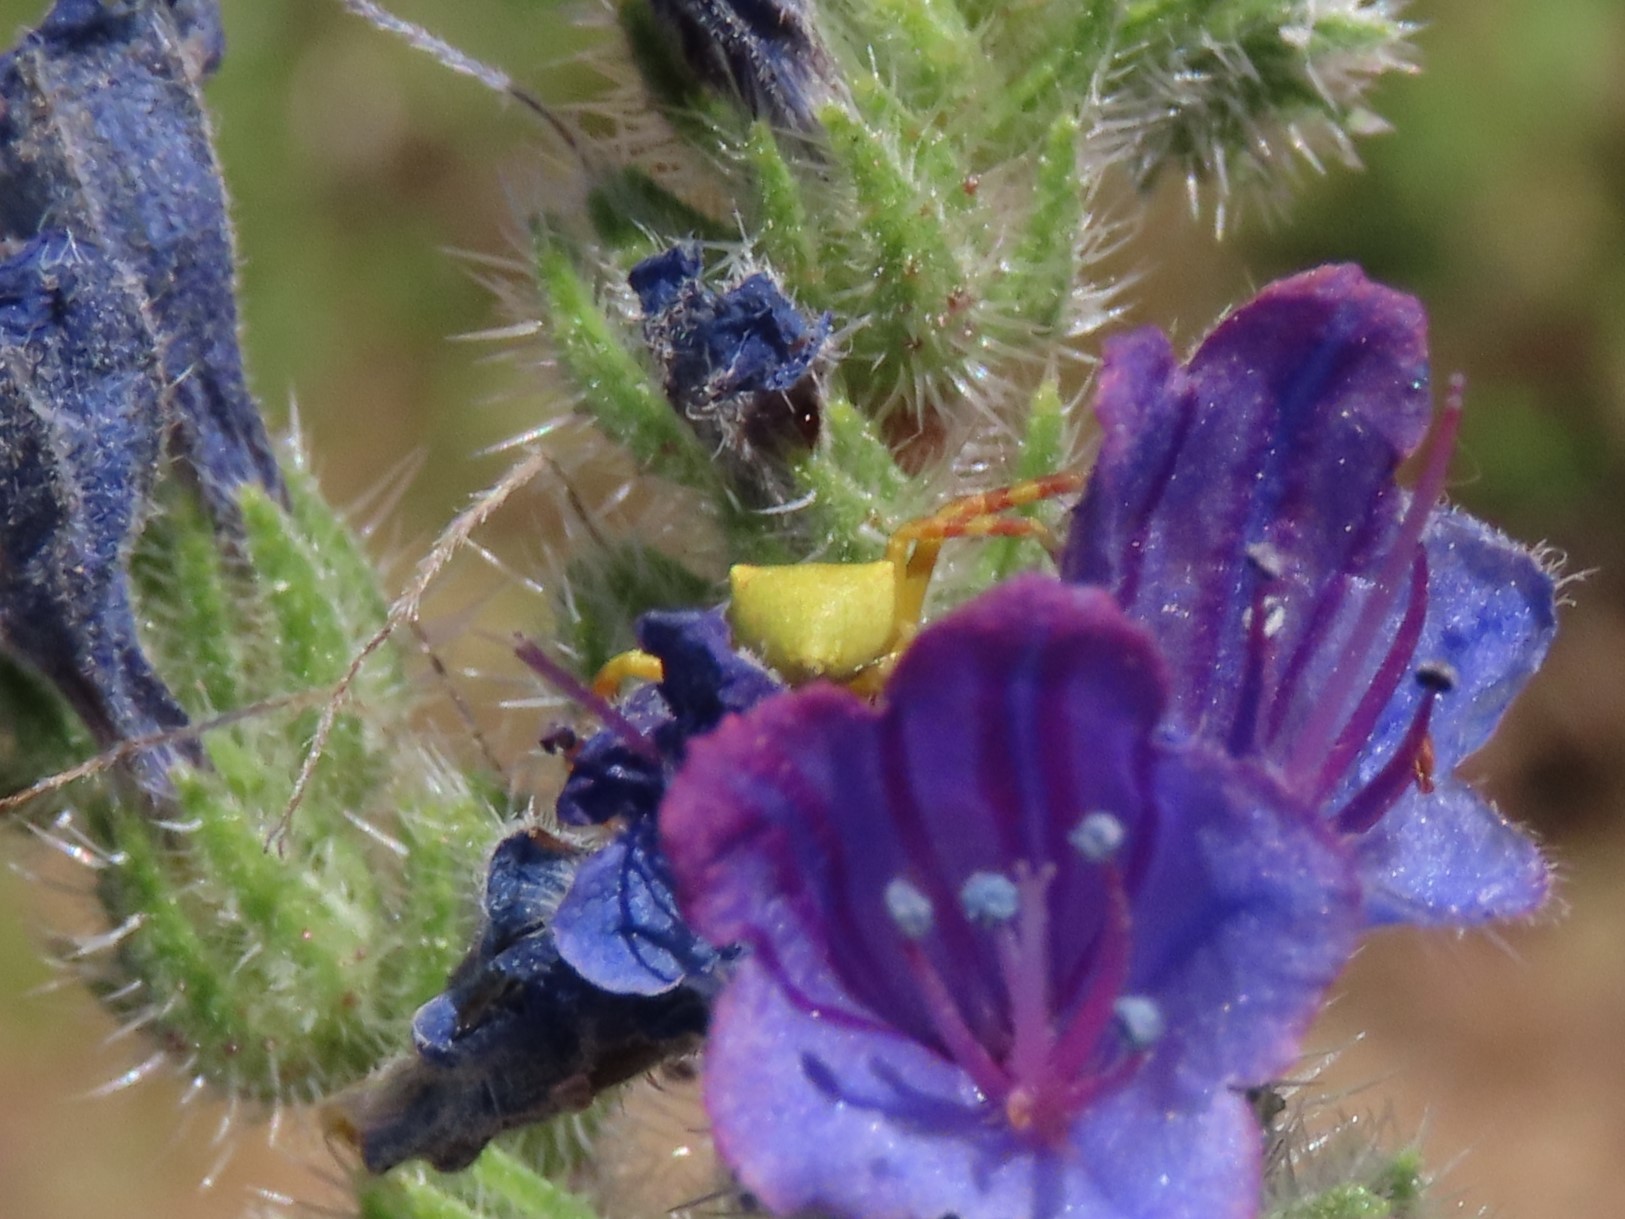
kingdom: Animalia
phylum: Arthropoda
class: Arachnida
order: Araneae
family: Thomisidae
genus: Thomisus
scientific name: Thomisus onustus
